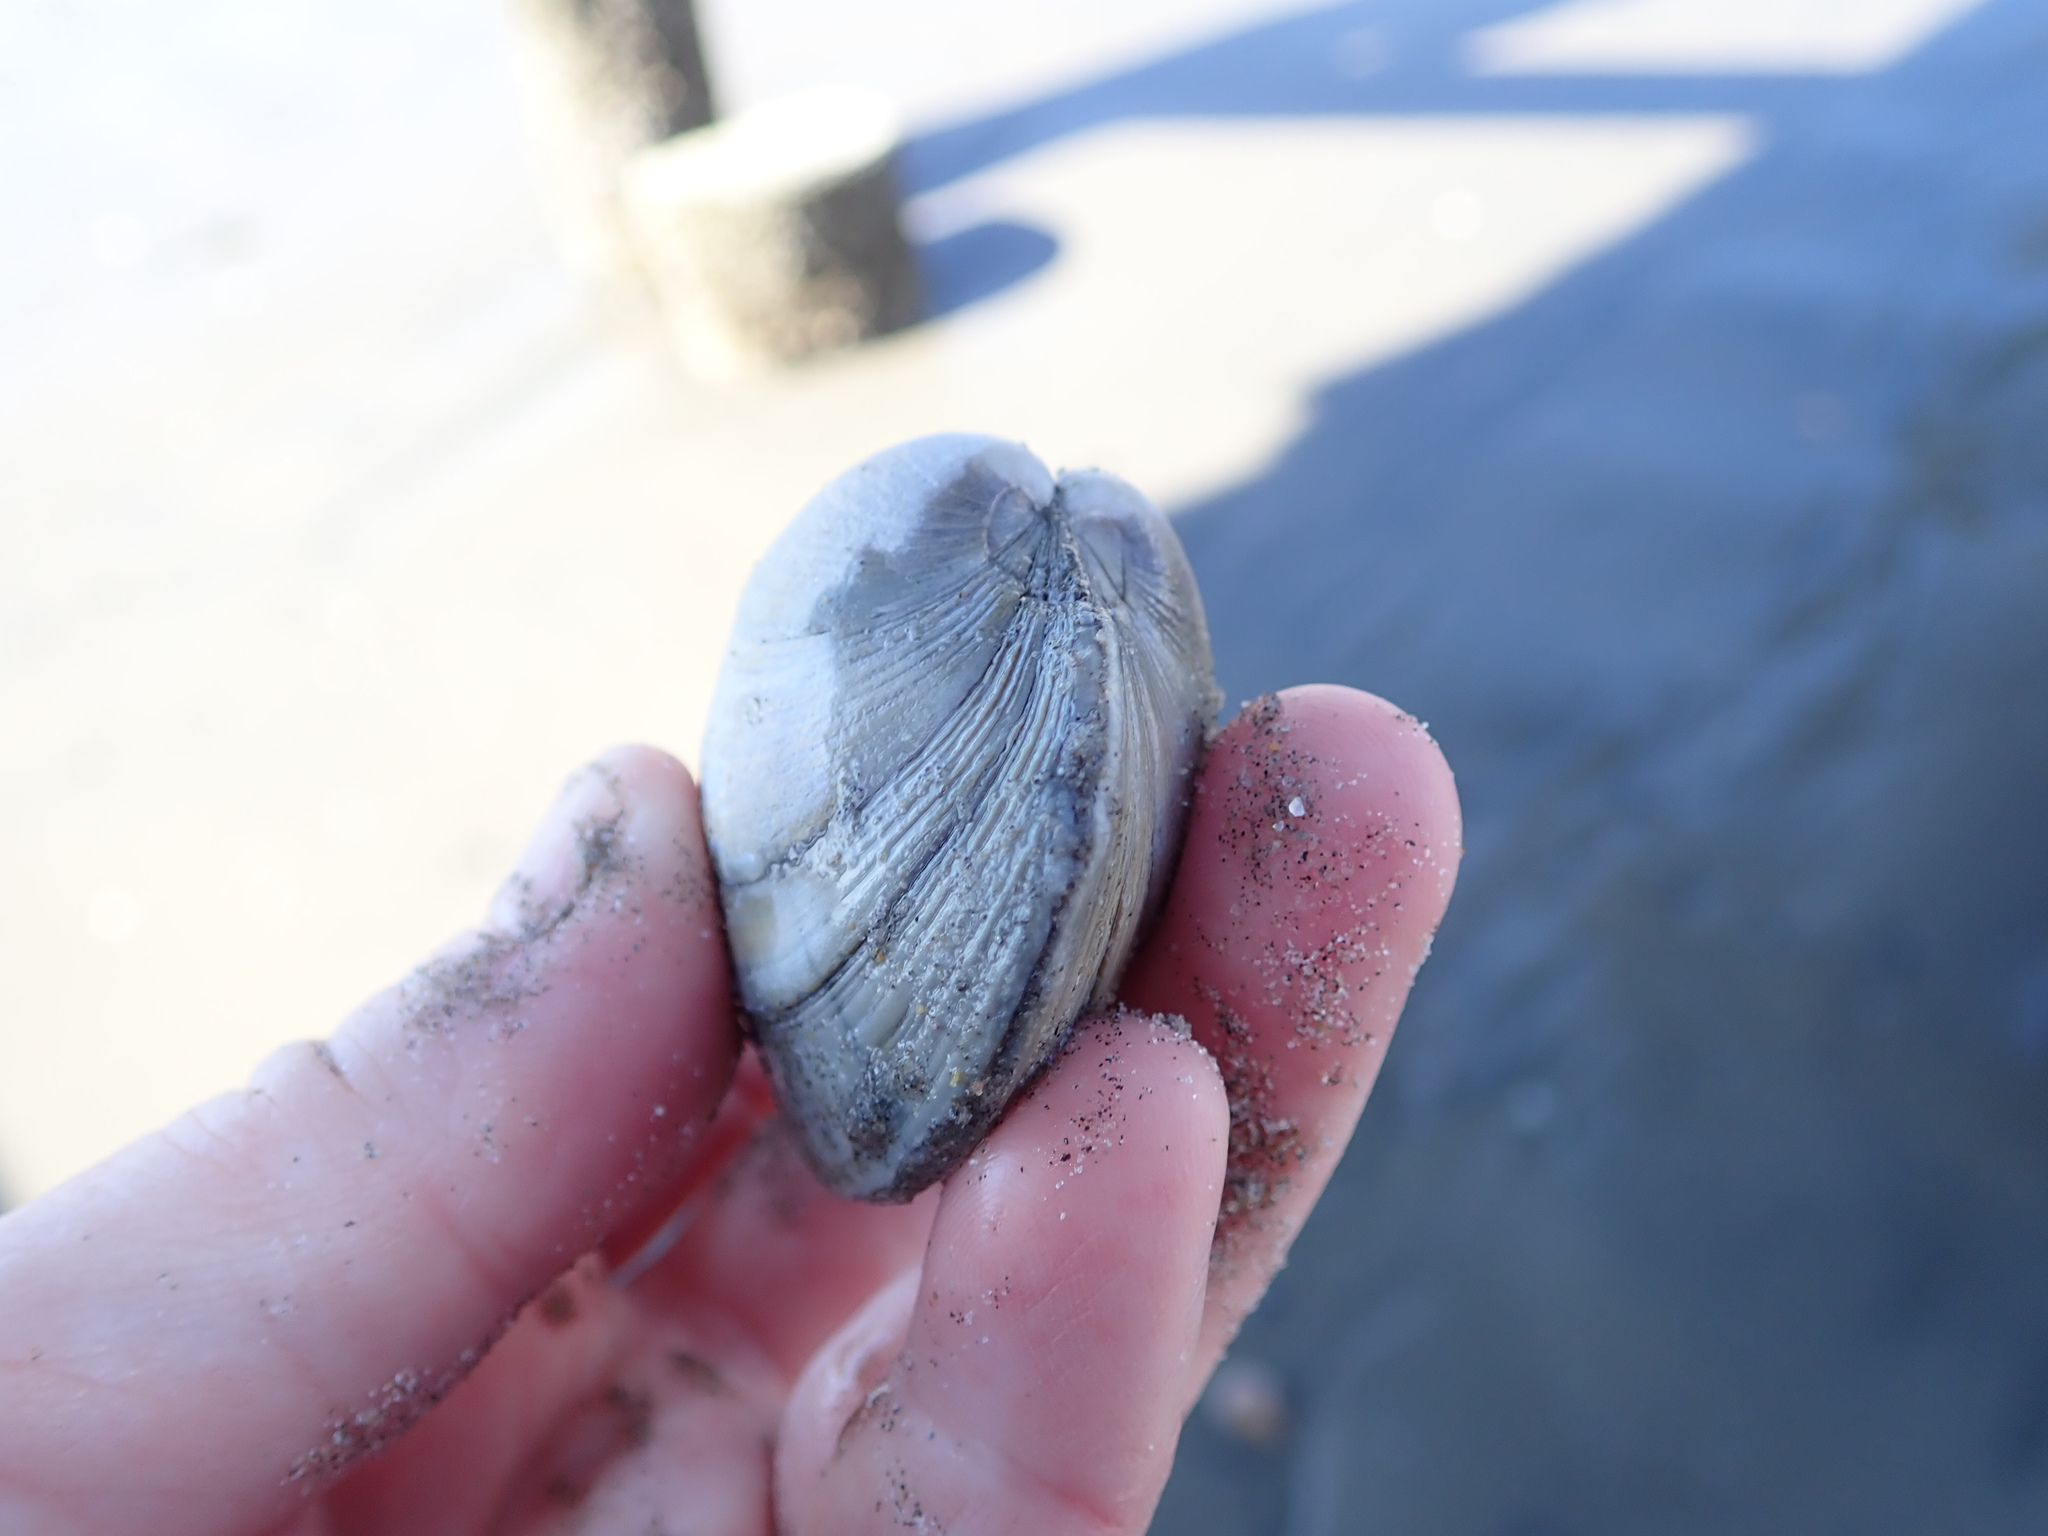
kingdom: Animalia
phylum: Mollusca
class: Bivalvia
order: Venerida
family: Veneridae
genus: Mercenaria
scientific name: Mercenaria mercenaria
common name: American hard-shelled clam
